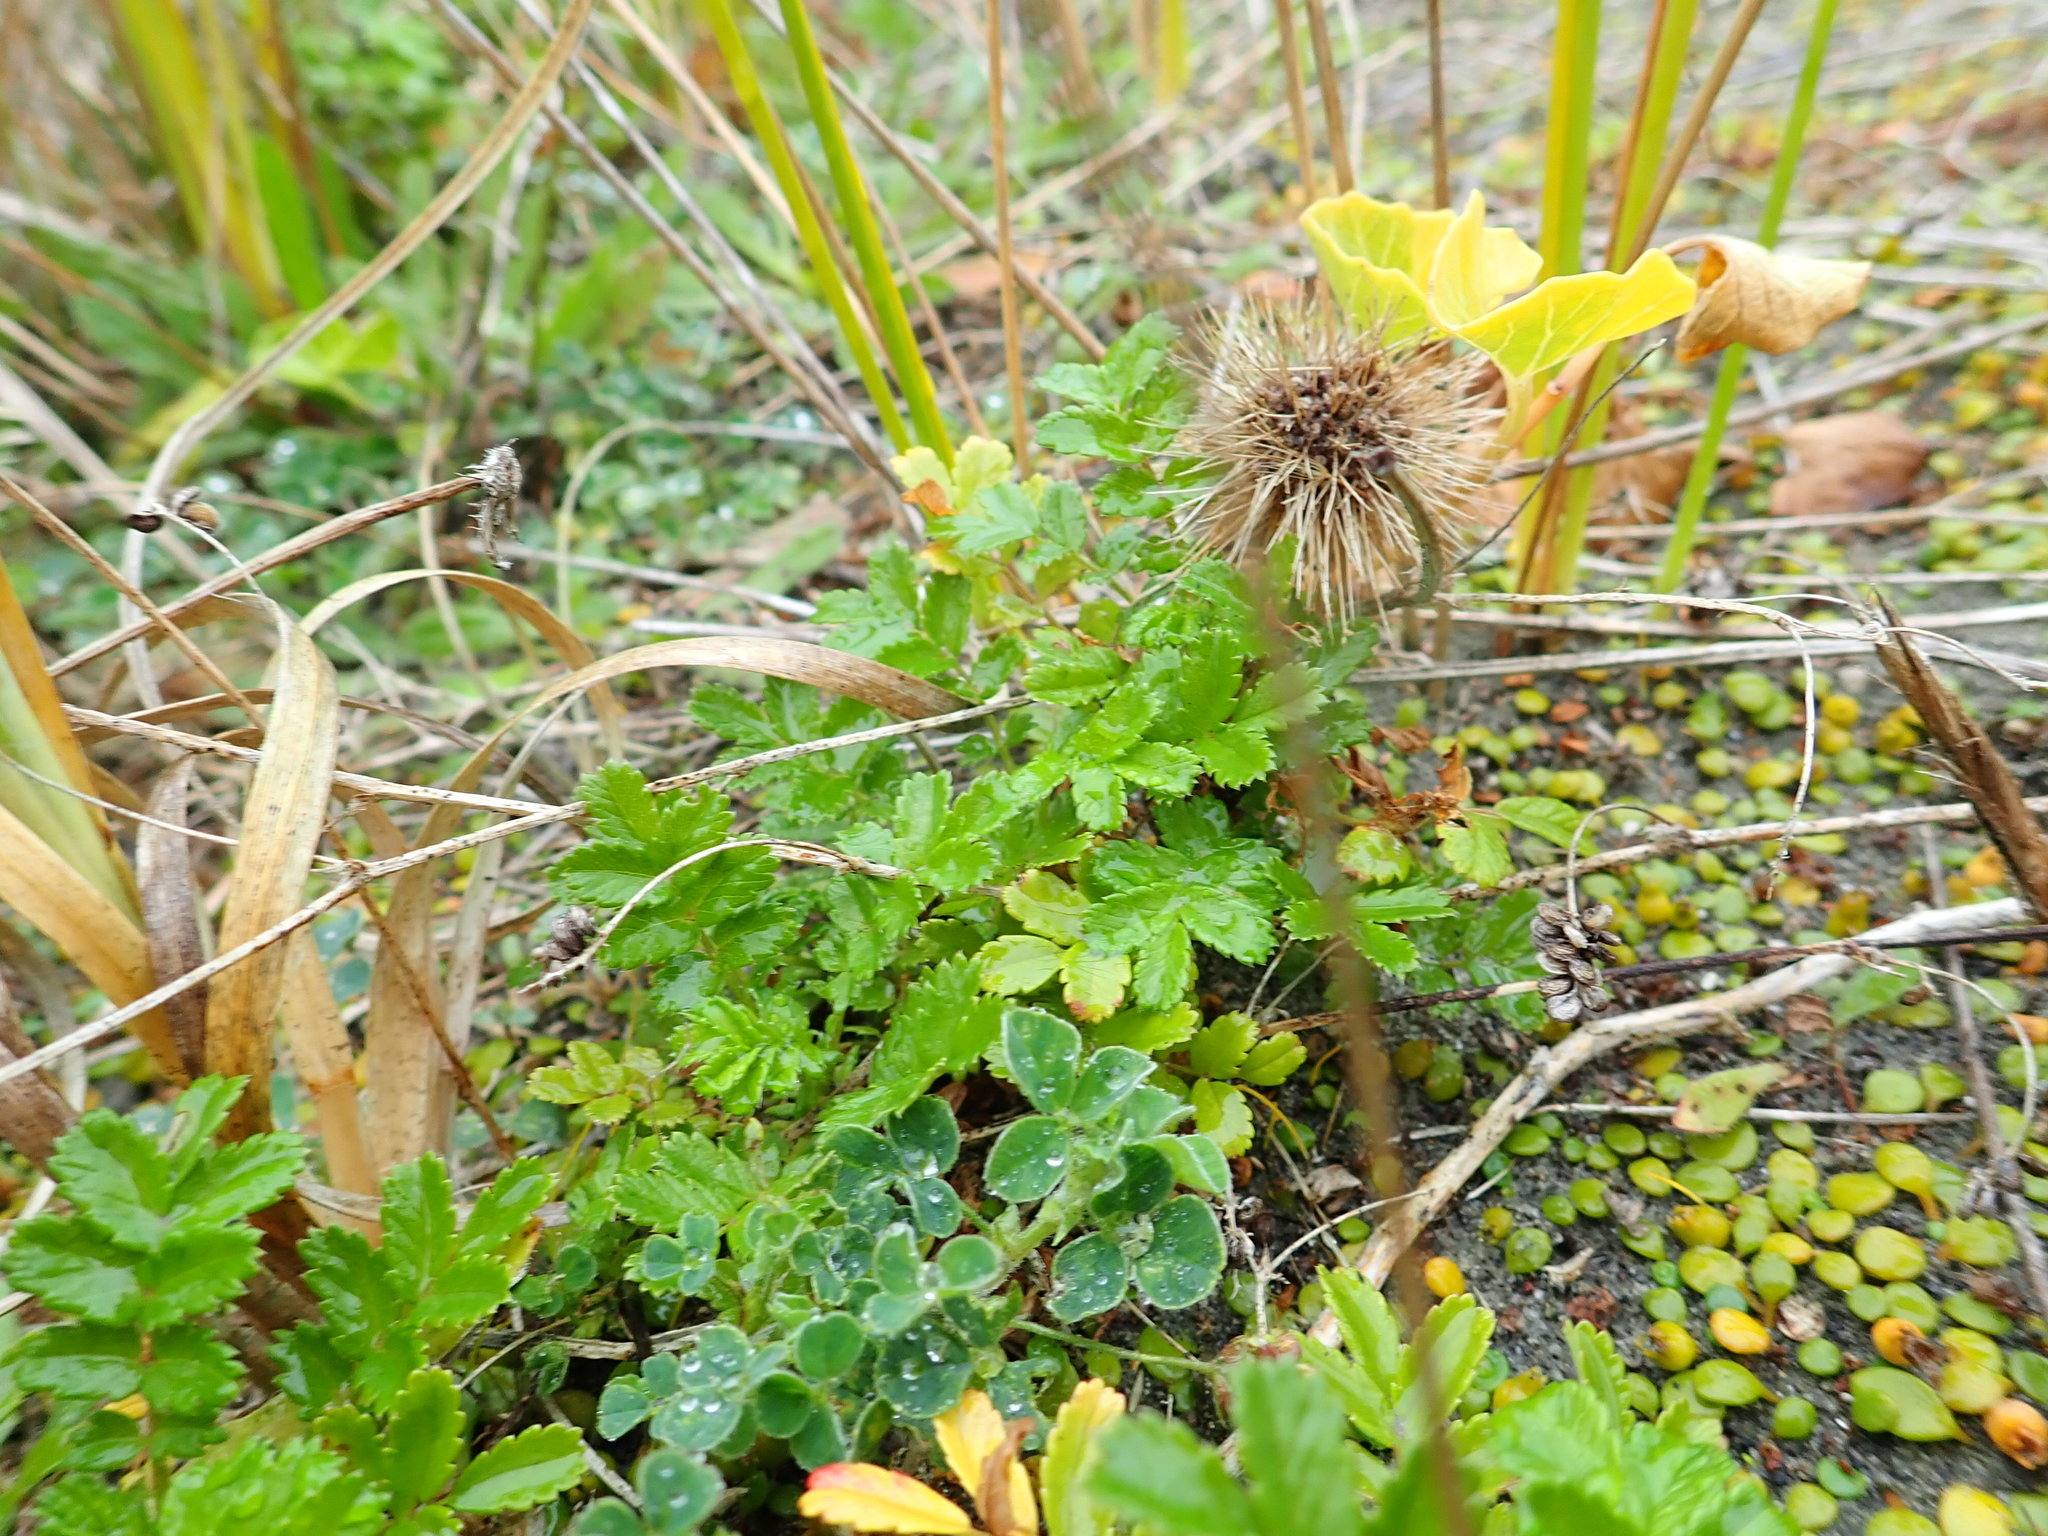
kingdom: Plantae
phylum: Tracheophyta
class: Magnoliopsida
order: Rosales
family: Rosaceae
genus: Acaena
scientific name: Acaena novae-zelandiae
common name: Pirri-pirri-bur
